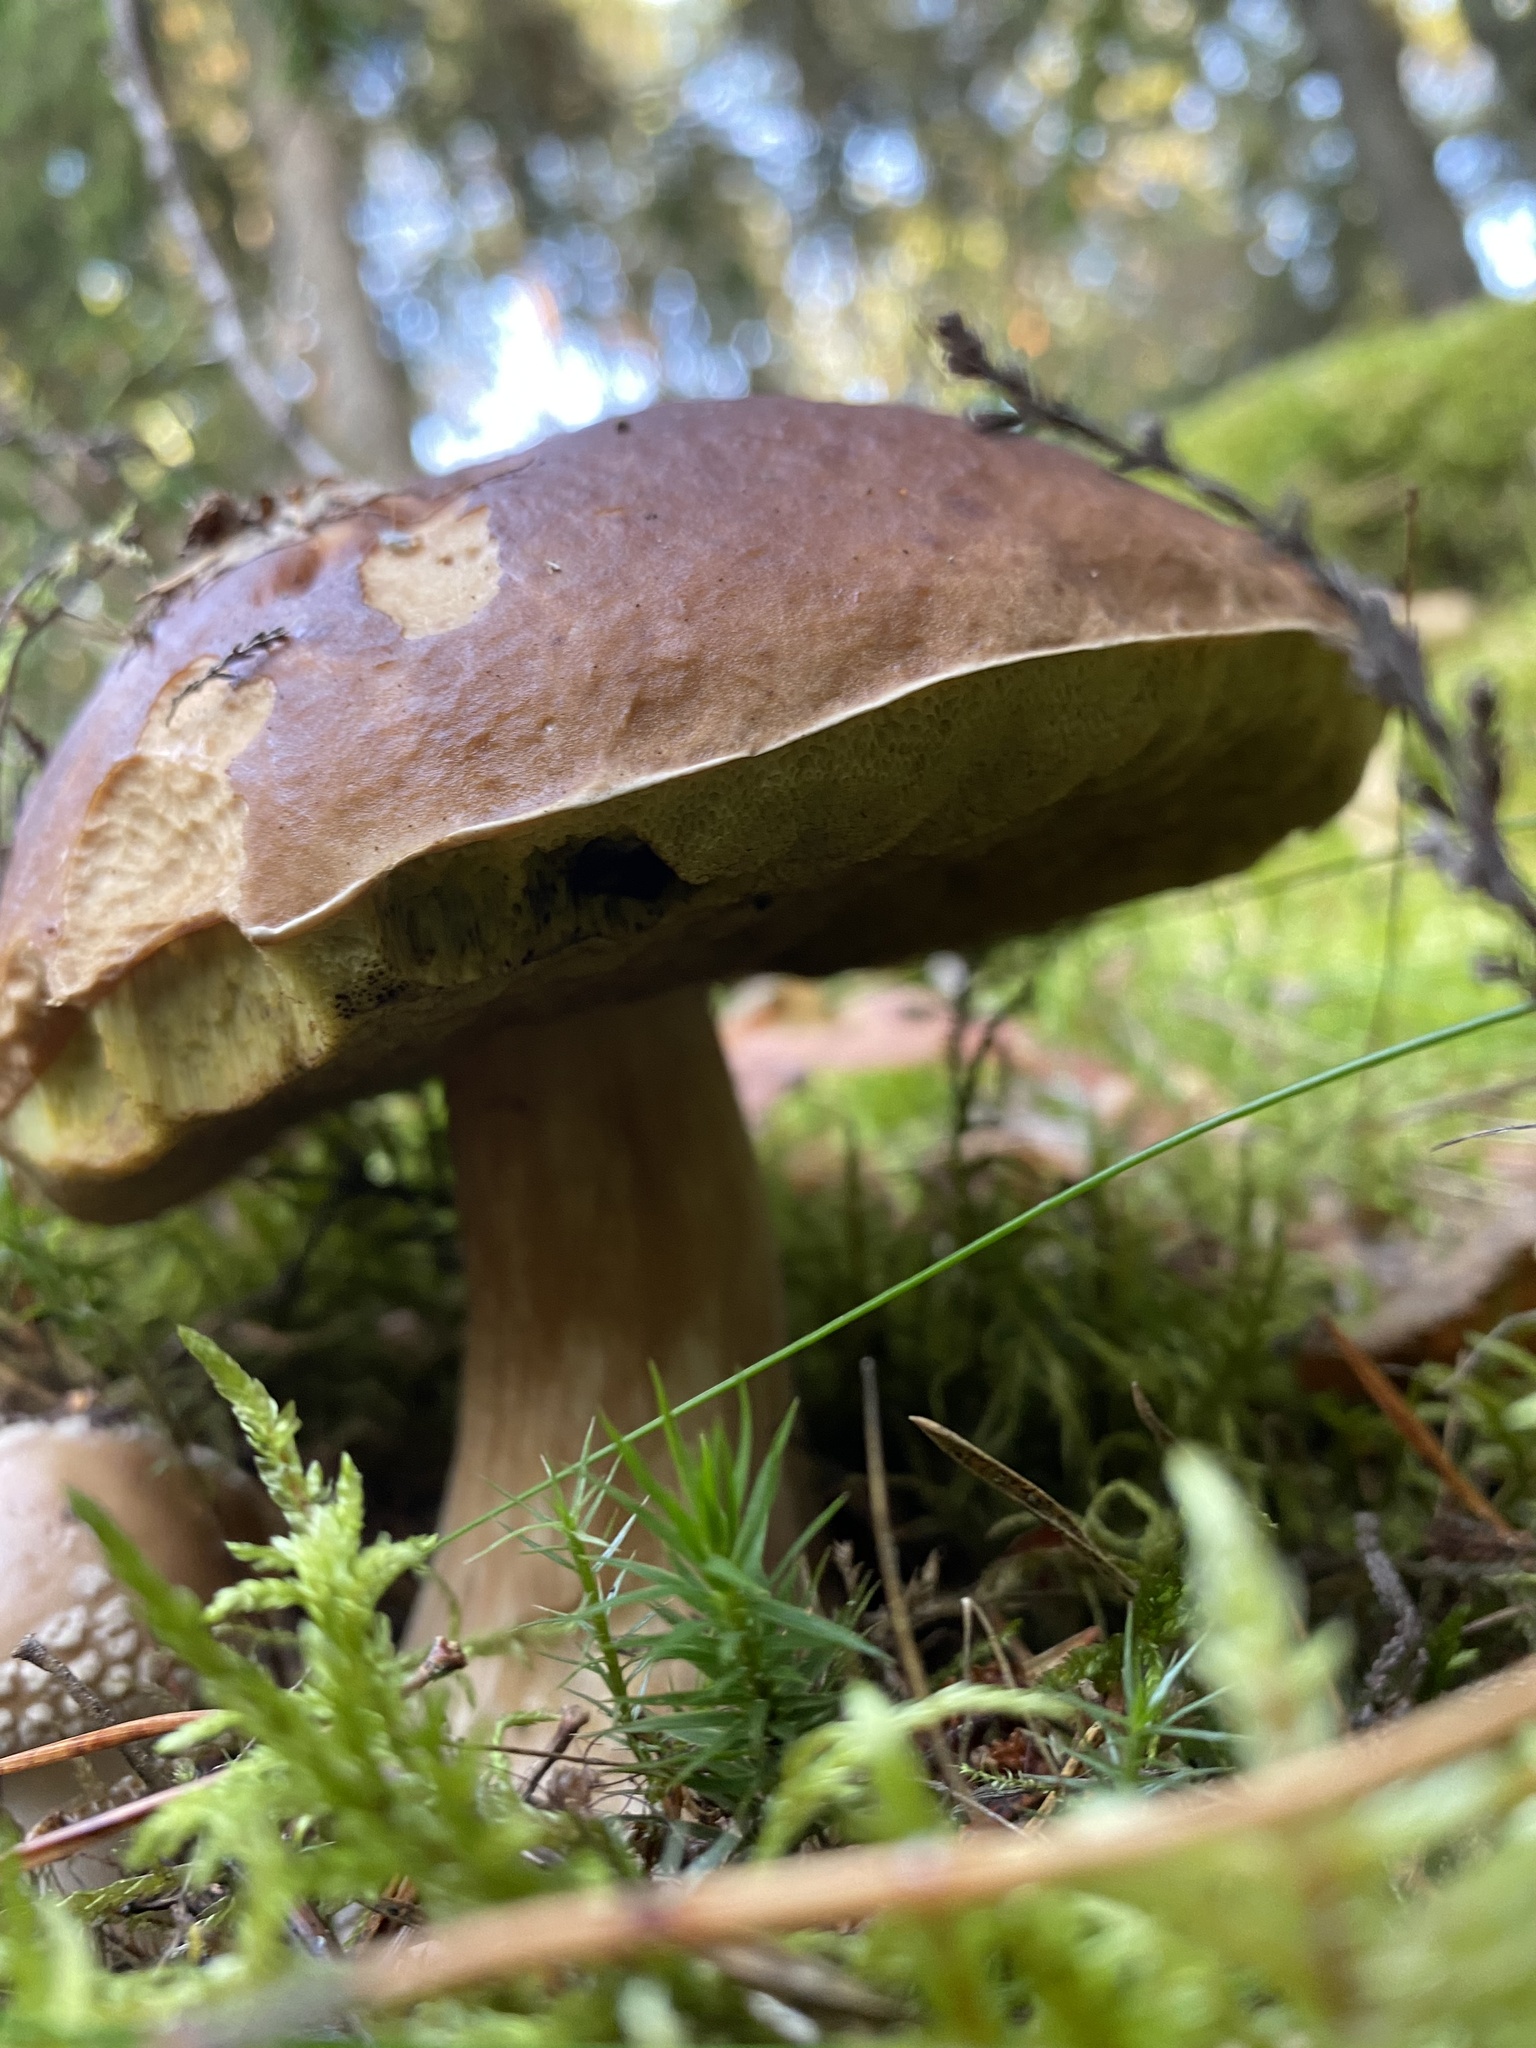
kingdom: Fungi
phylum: Basidiomycota
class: Agaricomycetes
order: Boletales
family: Boletaceae
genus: Boletus
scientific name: Boletus edulis
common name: Cep
